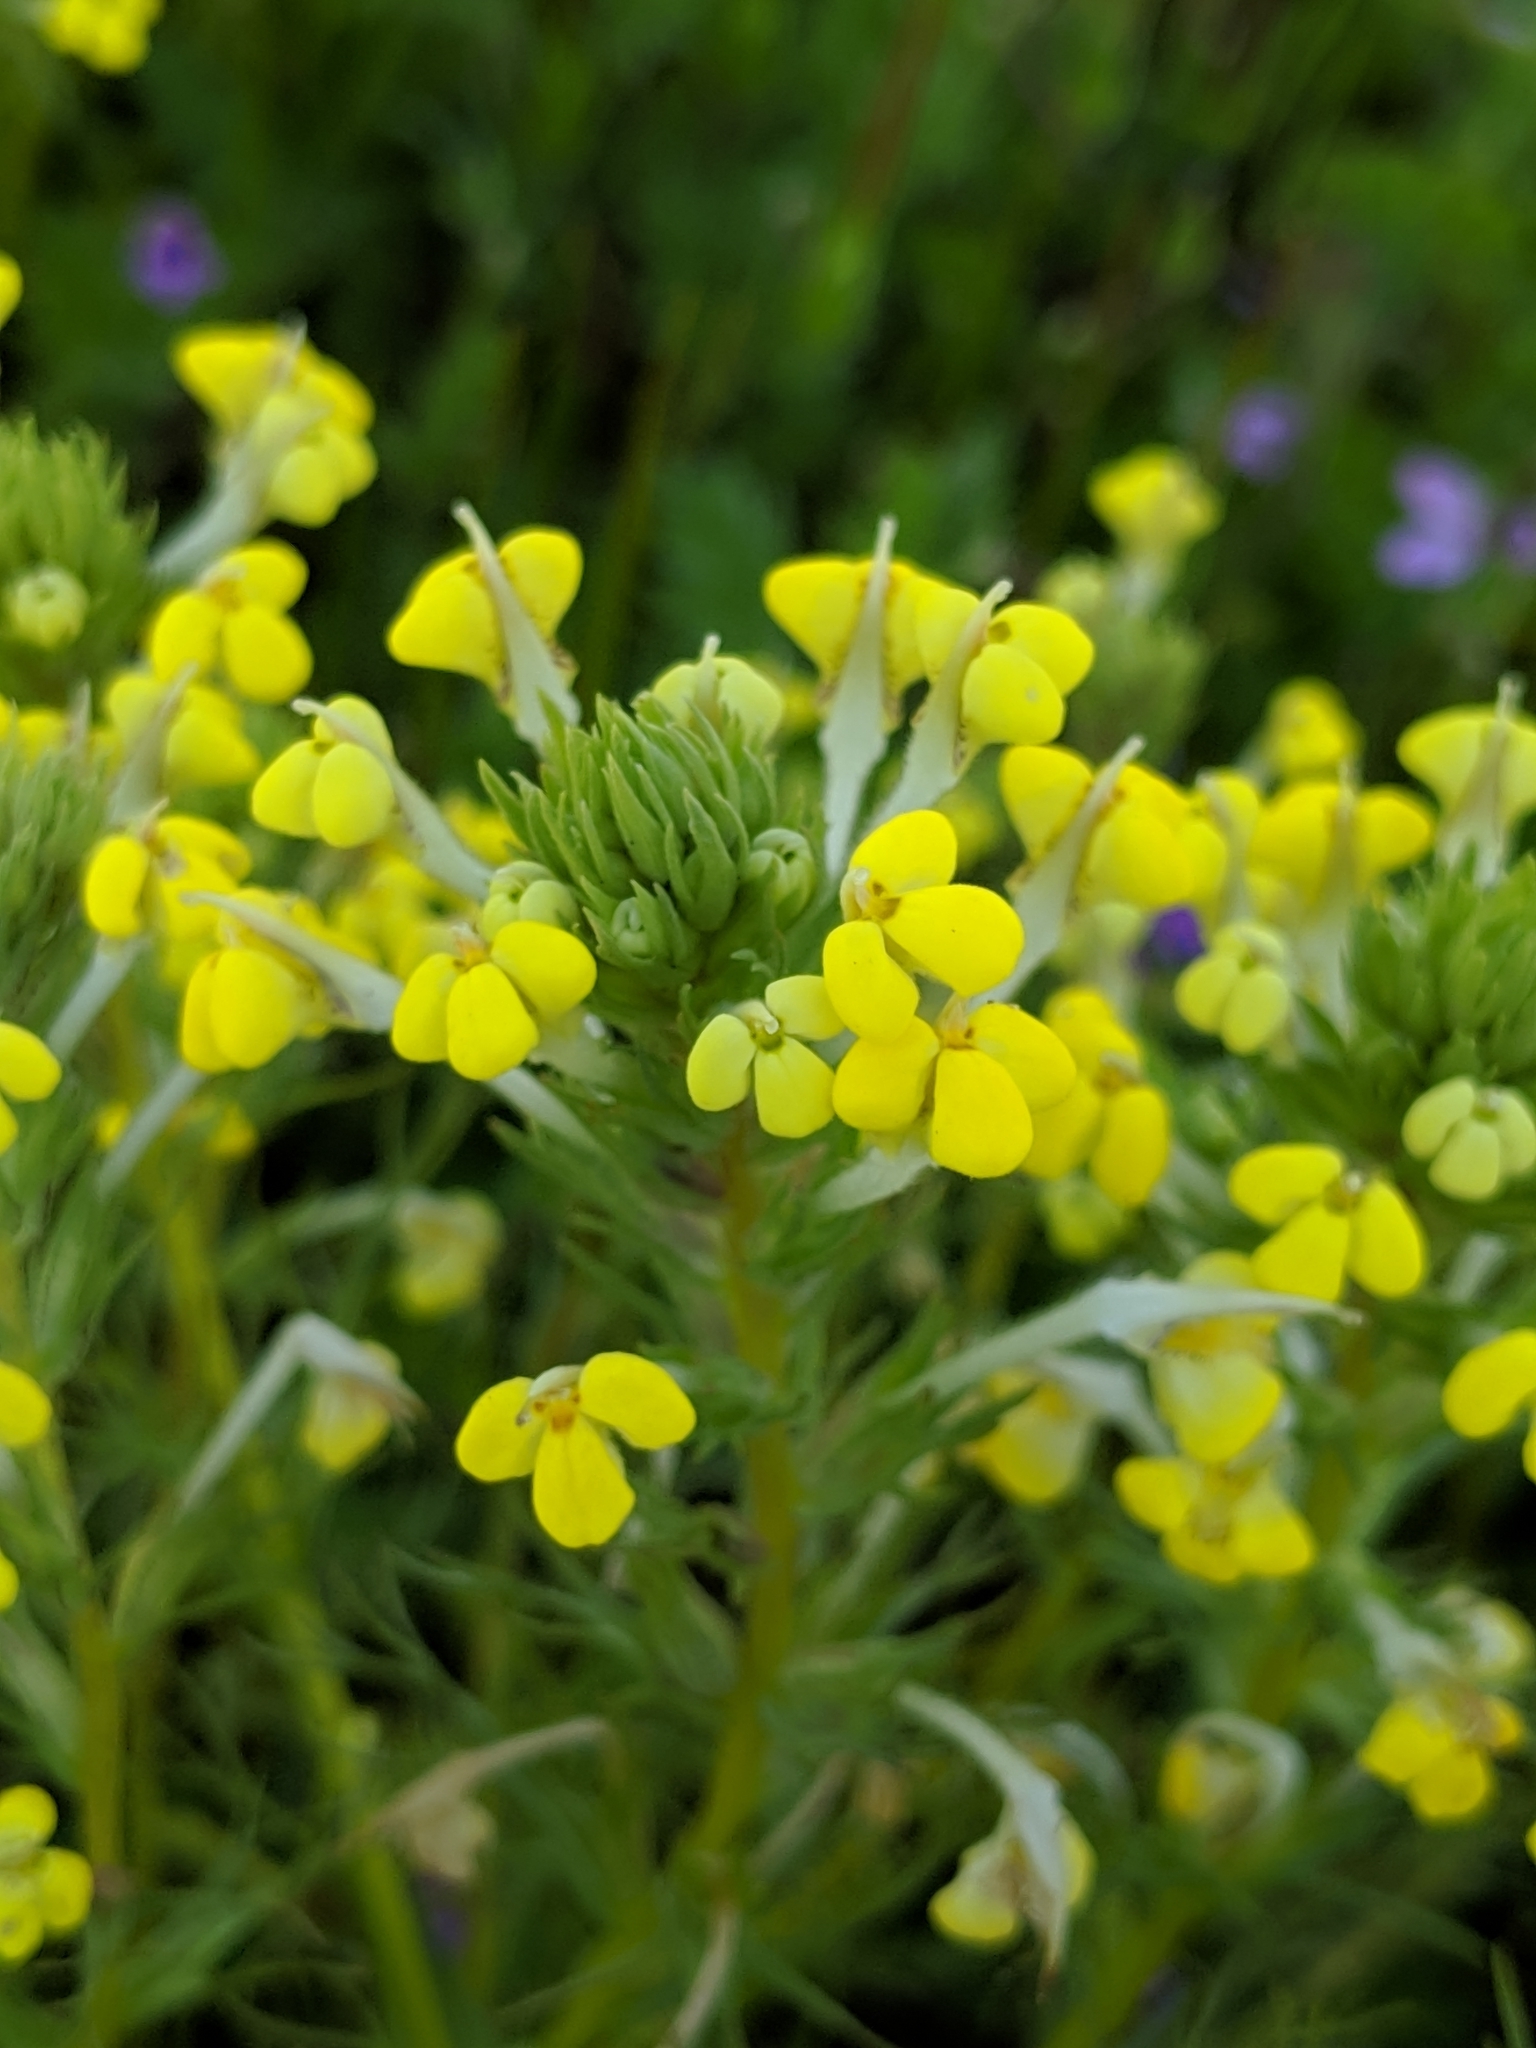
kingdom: Plantae
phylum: Tracheophyta
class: Magnoliopsida
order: Lamiales
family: Orobanchaceae
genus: Triphysaria
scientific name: Triphysaria versicolor
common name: Bearded false owl-clover
